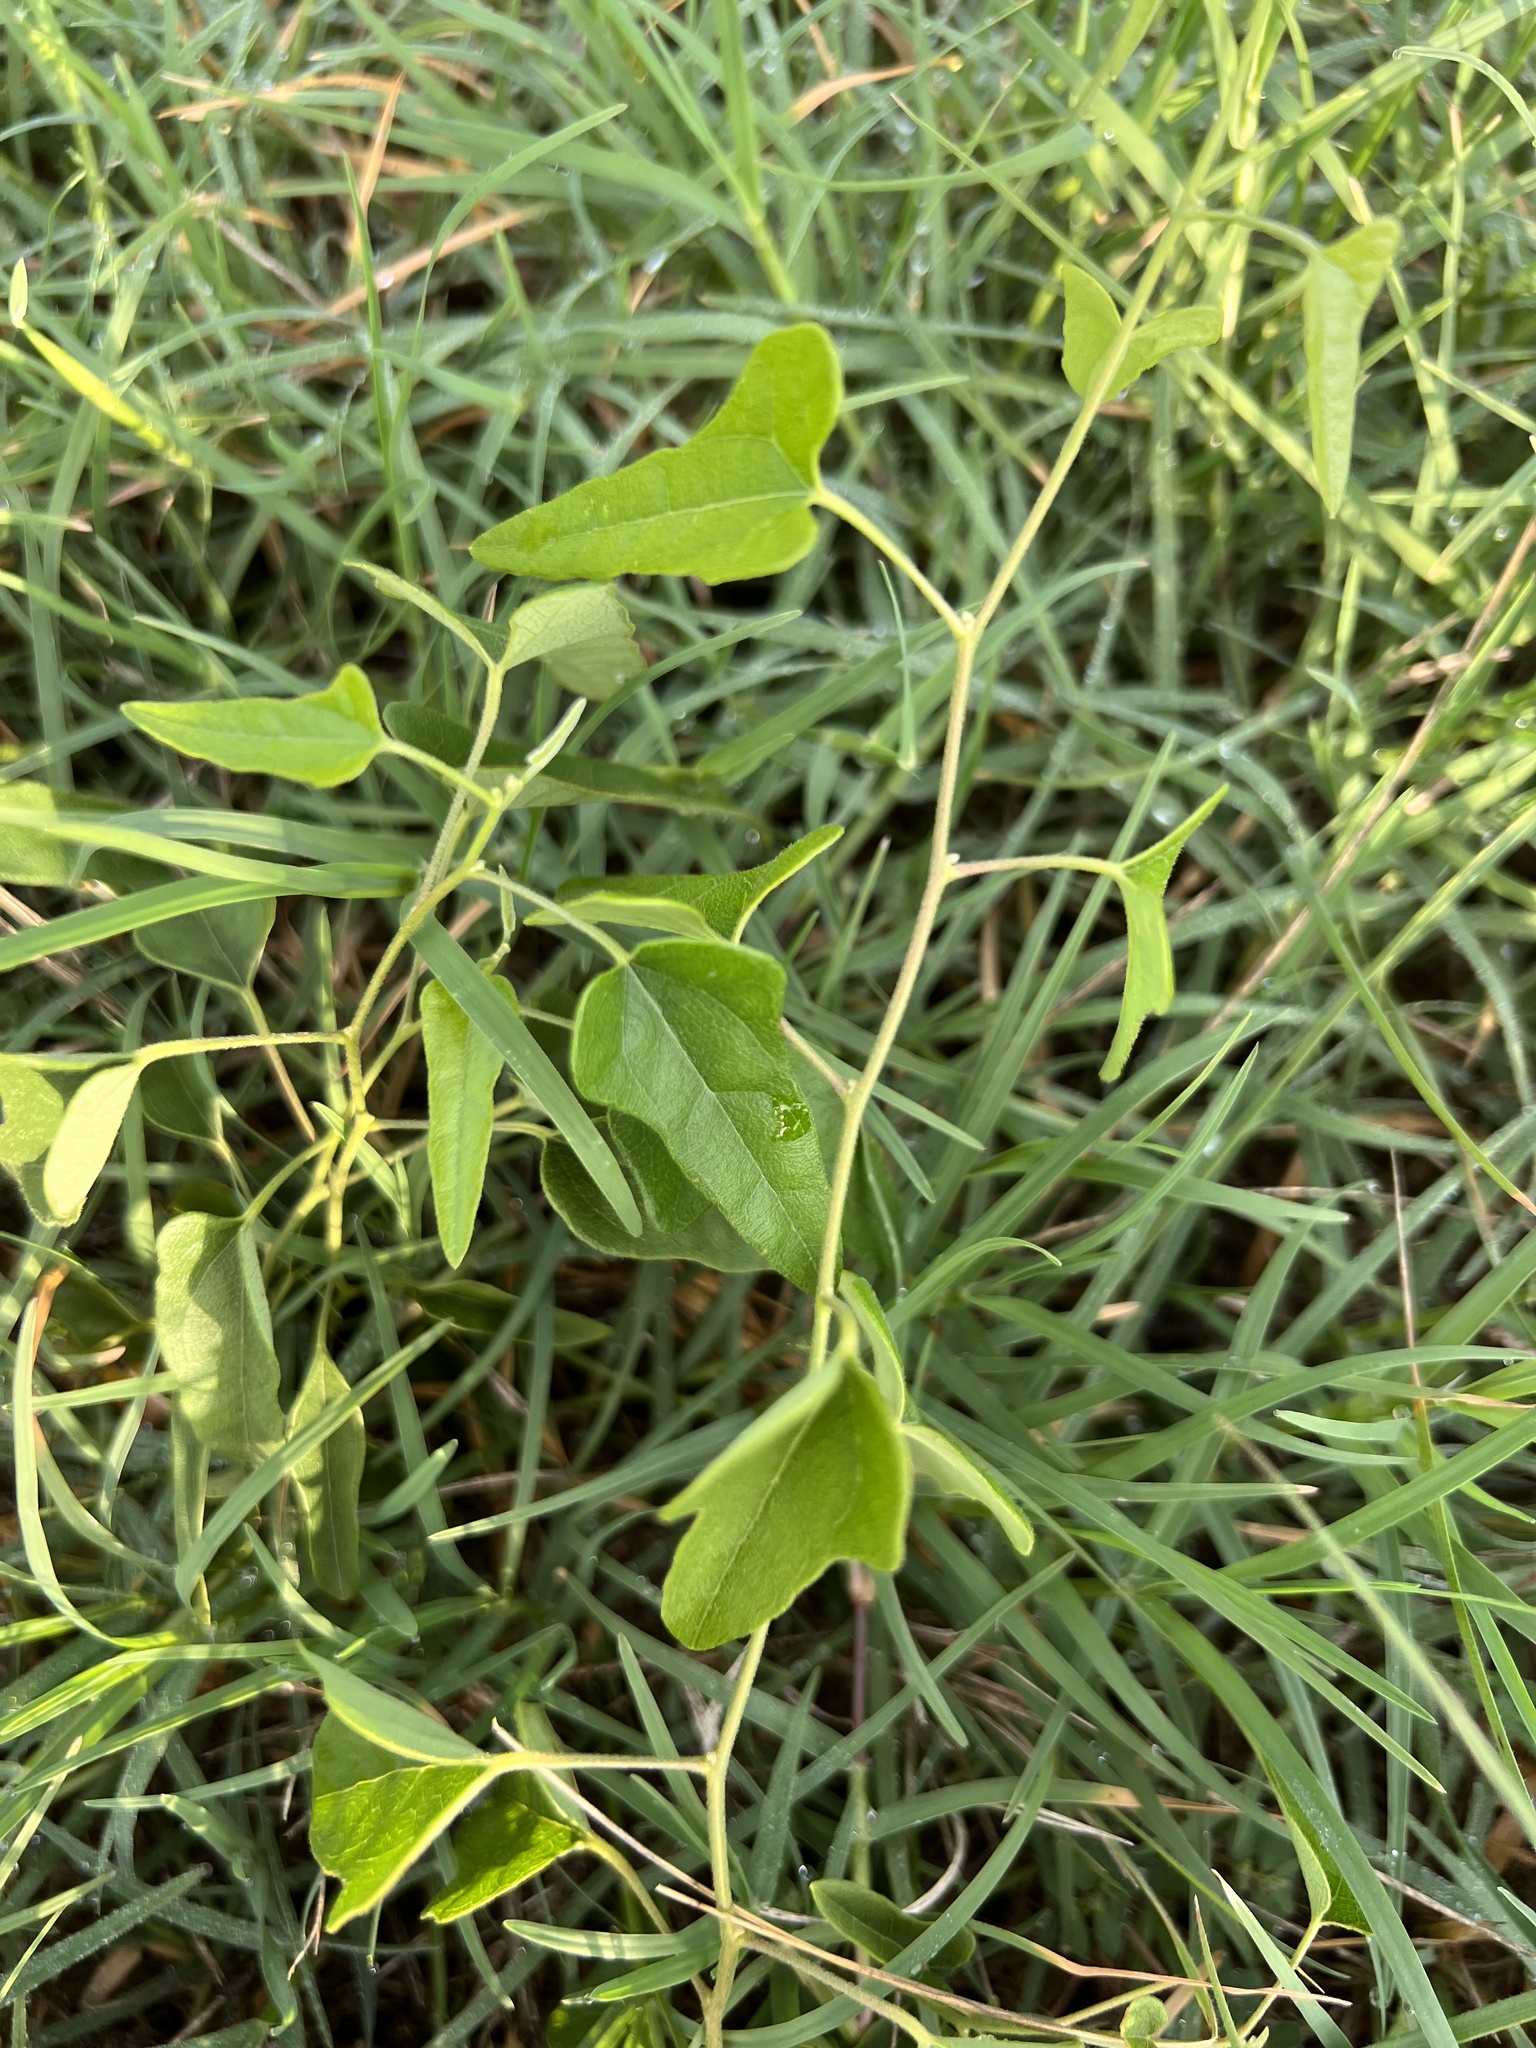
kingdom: Plantae
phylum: Tracheophyta
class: Magnoliopsida
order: Ranunculales
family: Menispermaceae
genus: Cocculus
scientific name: Cocculus carolinus
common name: Carolina moonseed
